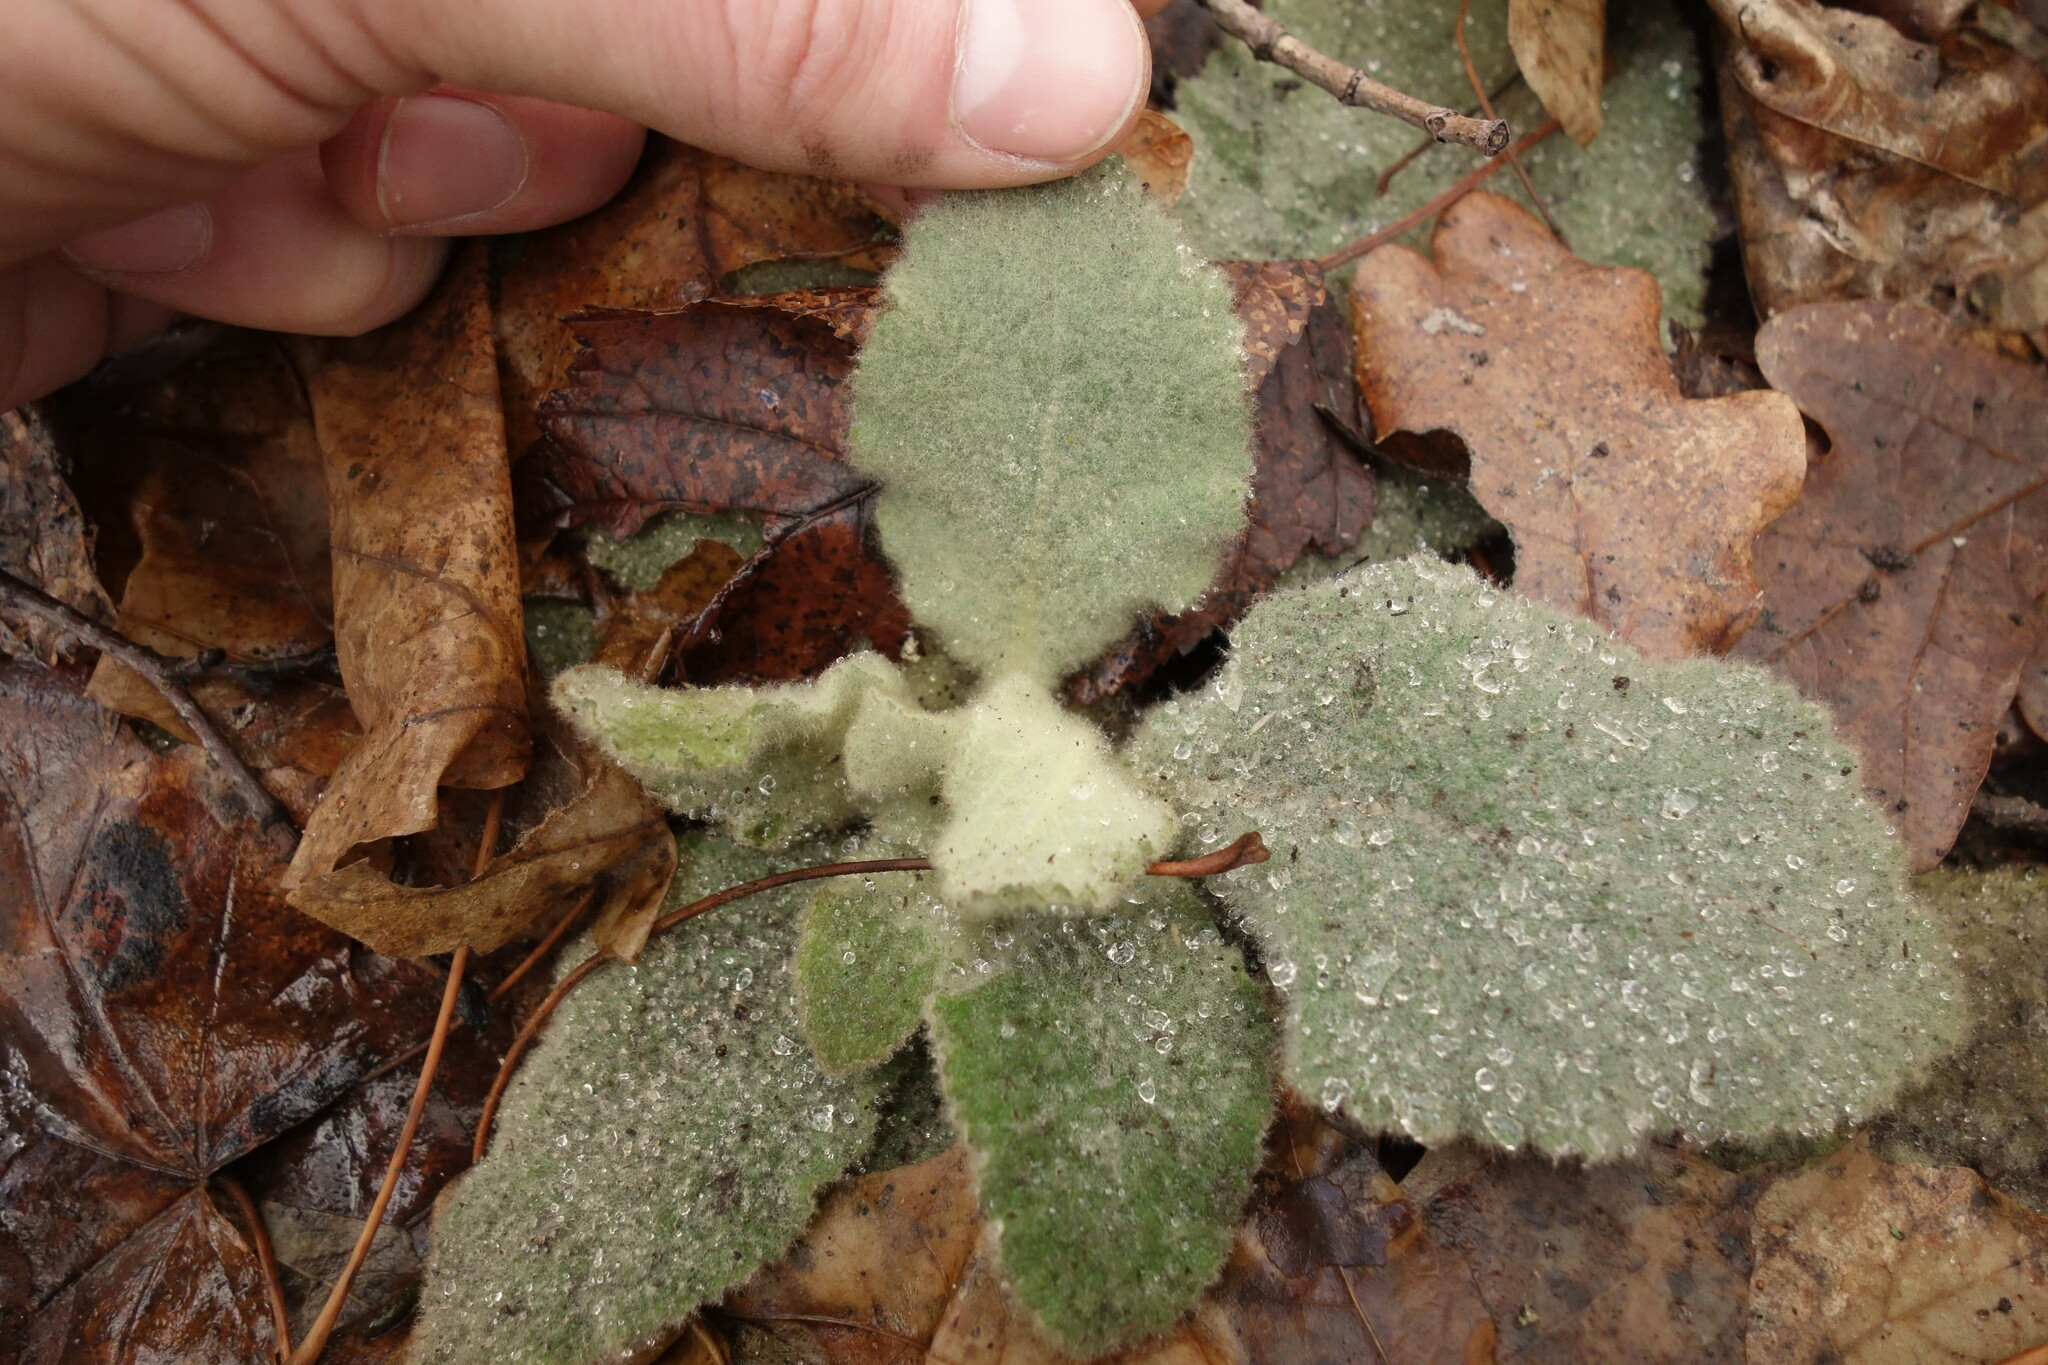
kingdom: Plantae
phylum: Tracheophyta
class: Magnoliopsida
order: Lamiales
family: Scrophulariaceae
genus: Verbascum
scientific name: Verbascum thapsus
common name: Common mullein
